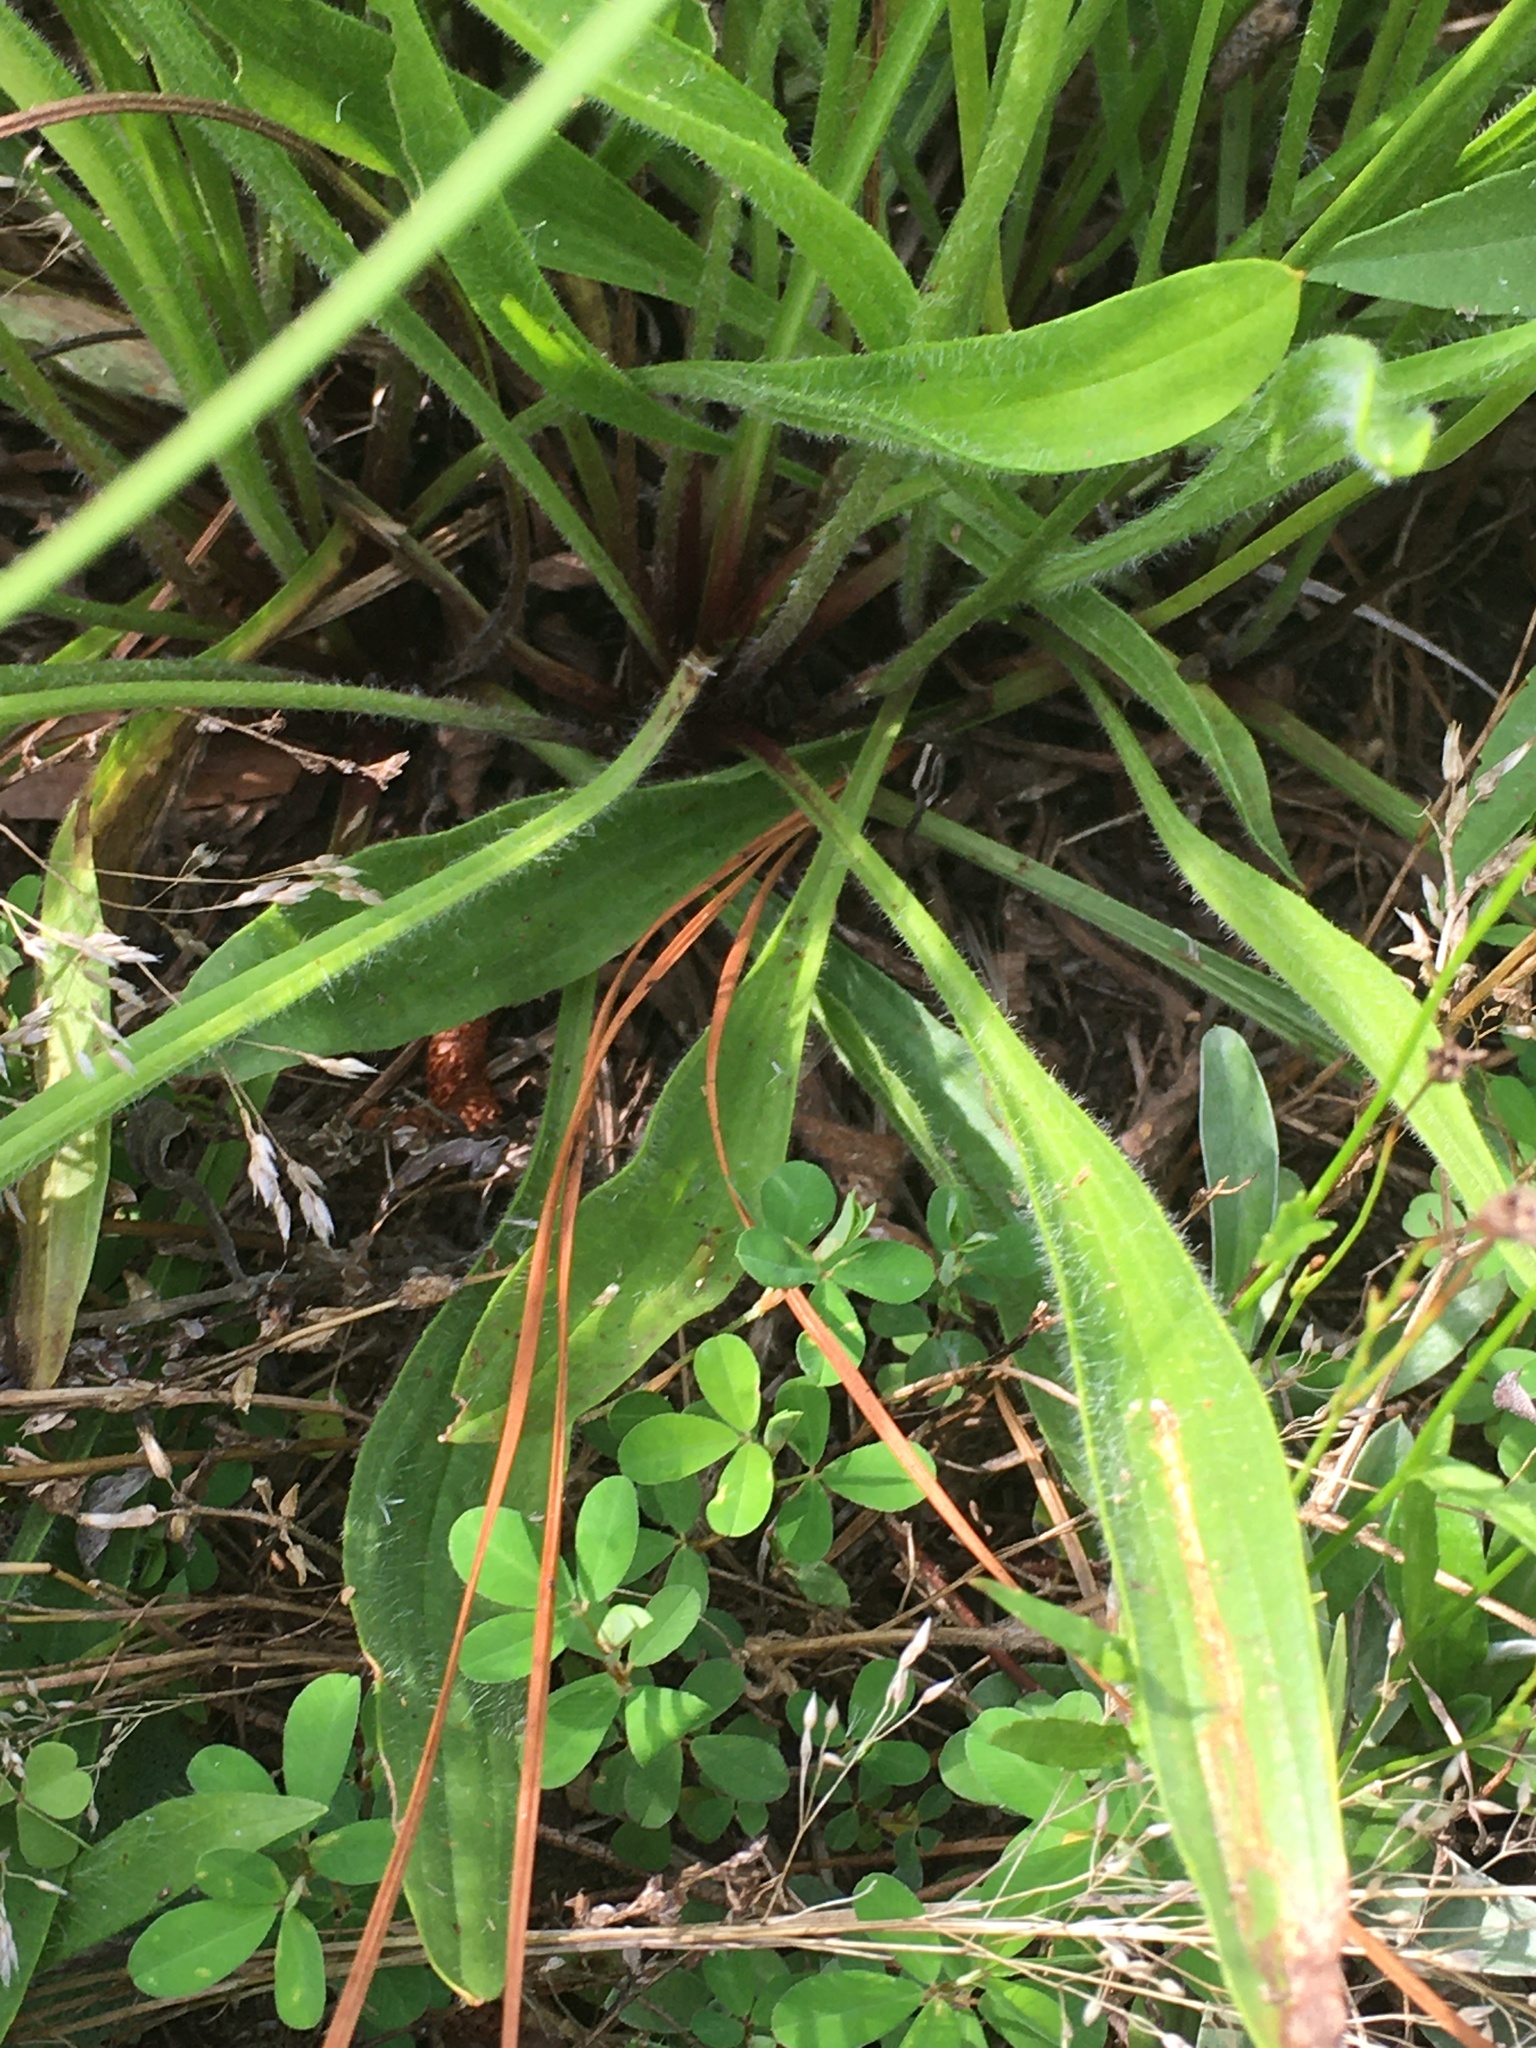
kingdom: Plantae
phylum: Tracheophyta
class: Magnoliopsida
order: Lamiales
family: Plantaginaceae
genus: Plantago
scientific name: Plantago lanceolata
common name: Ribwort plantain
